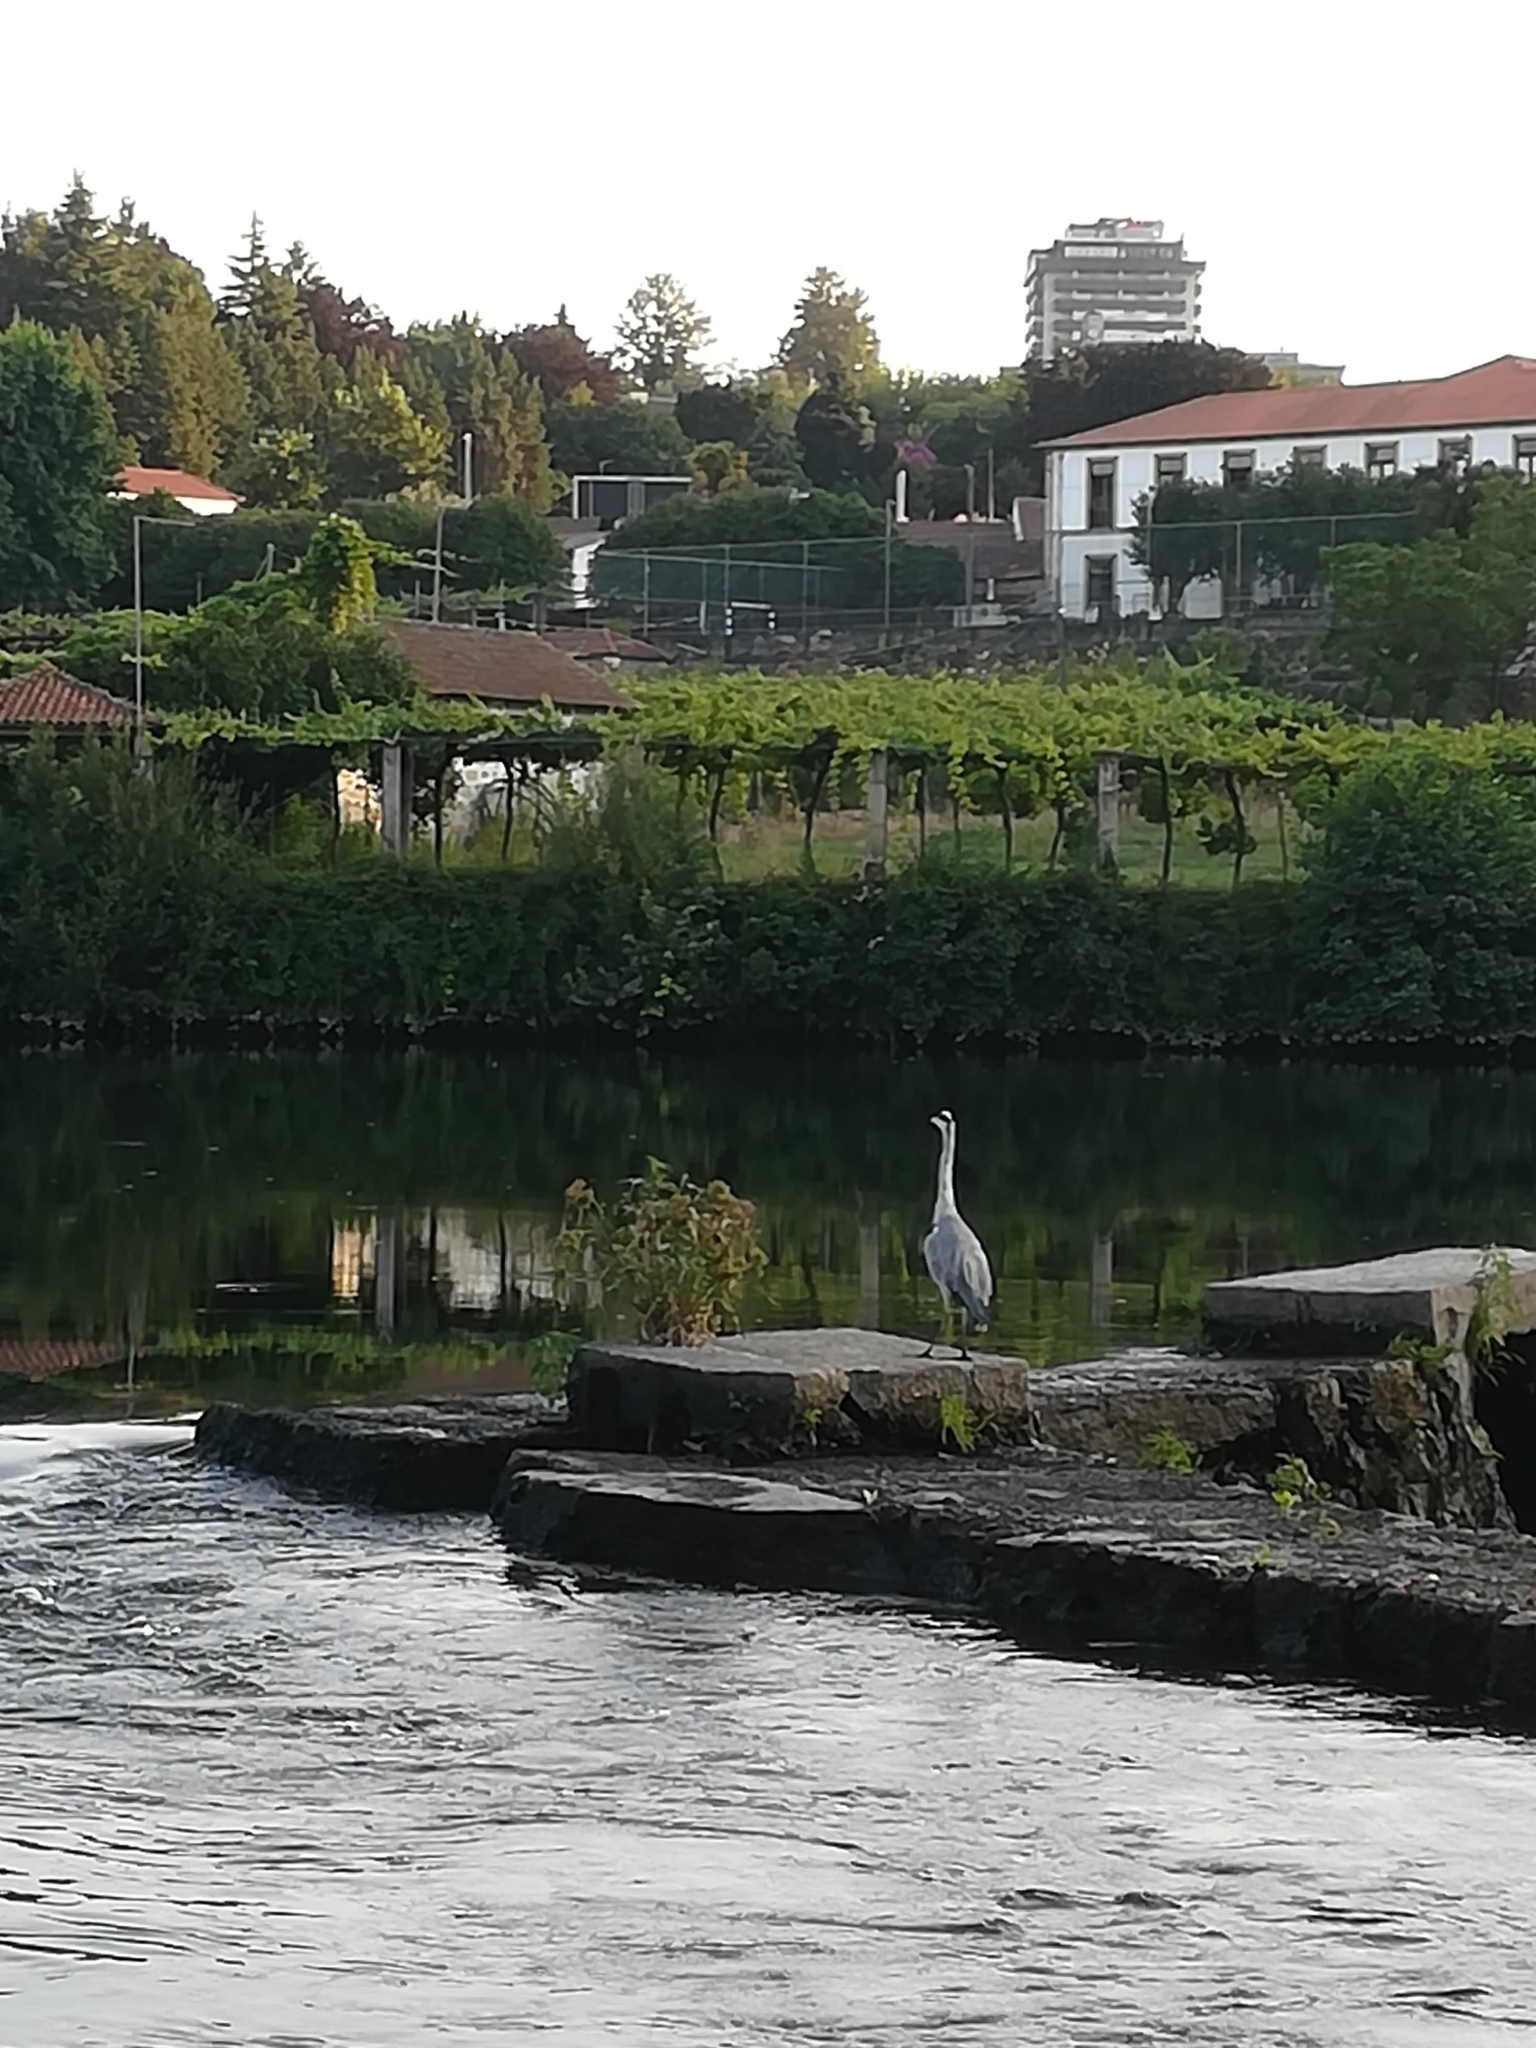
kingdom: Animalia
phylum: Chordata
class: Aves
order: Pelecaniformes
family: Ardeidae
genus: Ardea
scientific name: Ardea cinerea
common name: Grey heron
